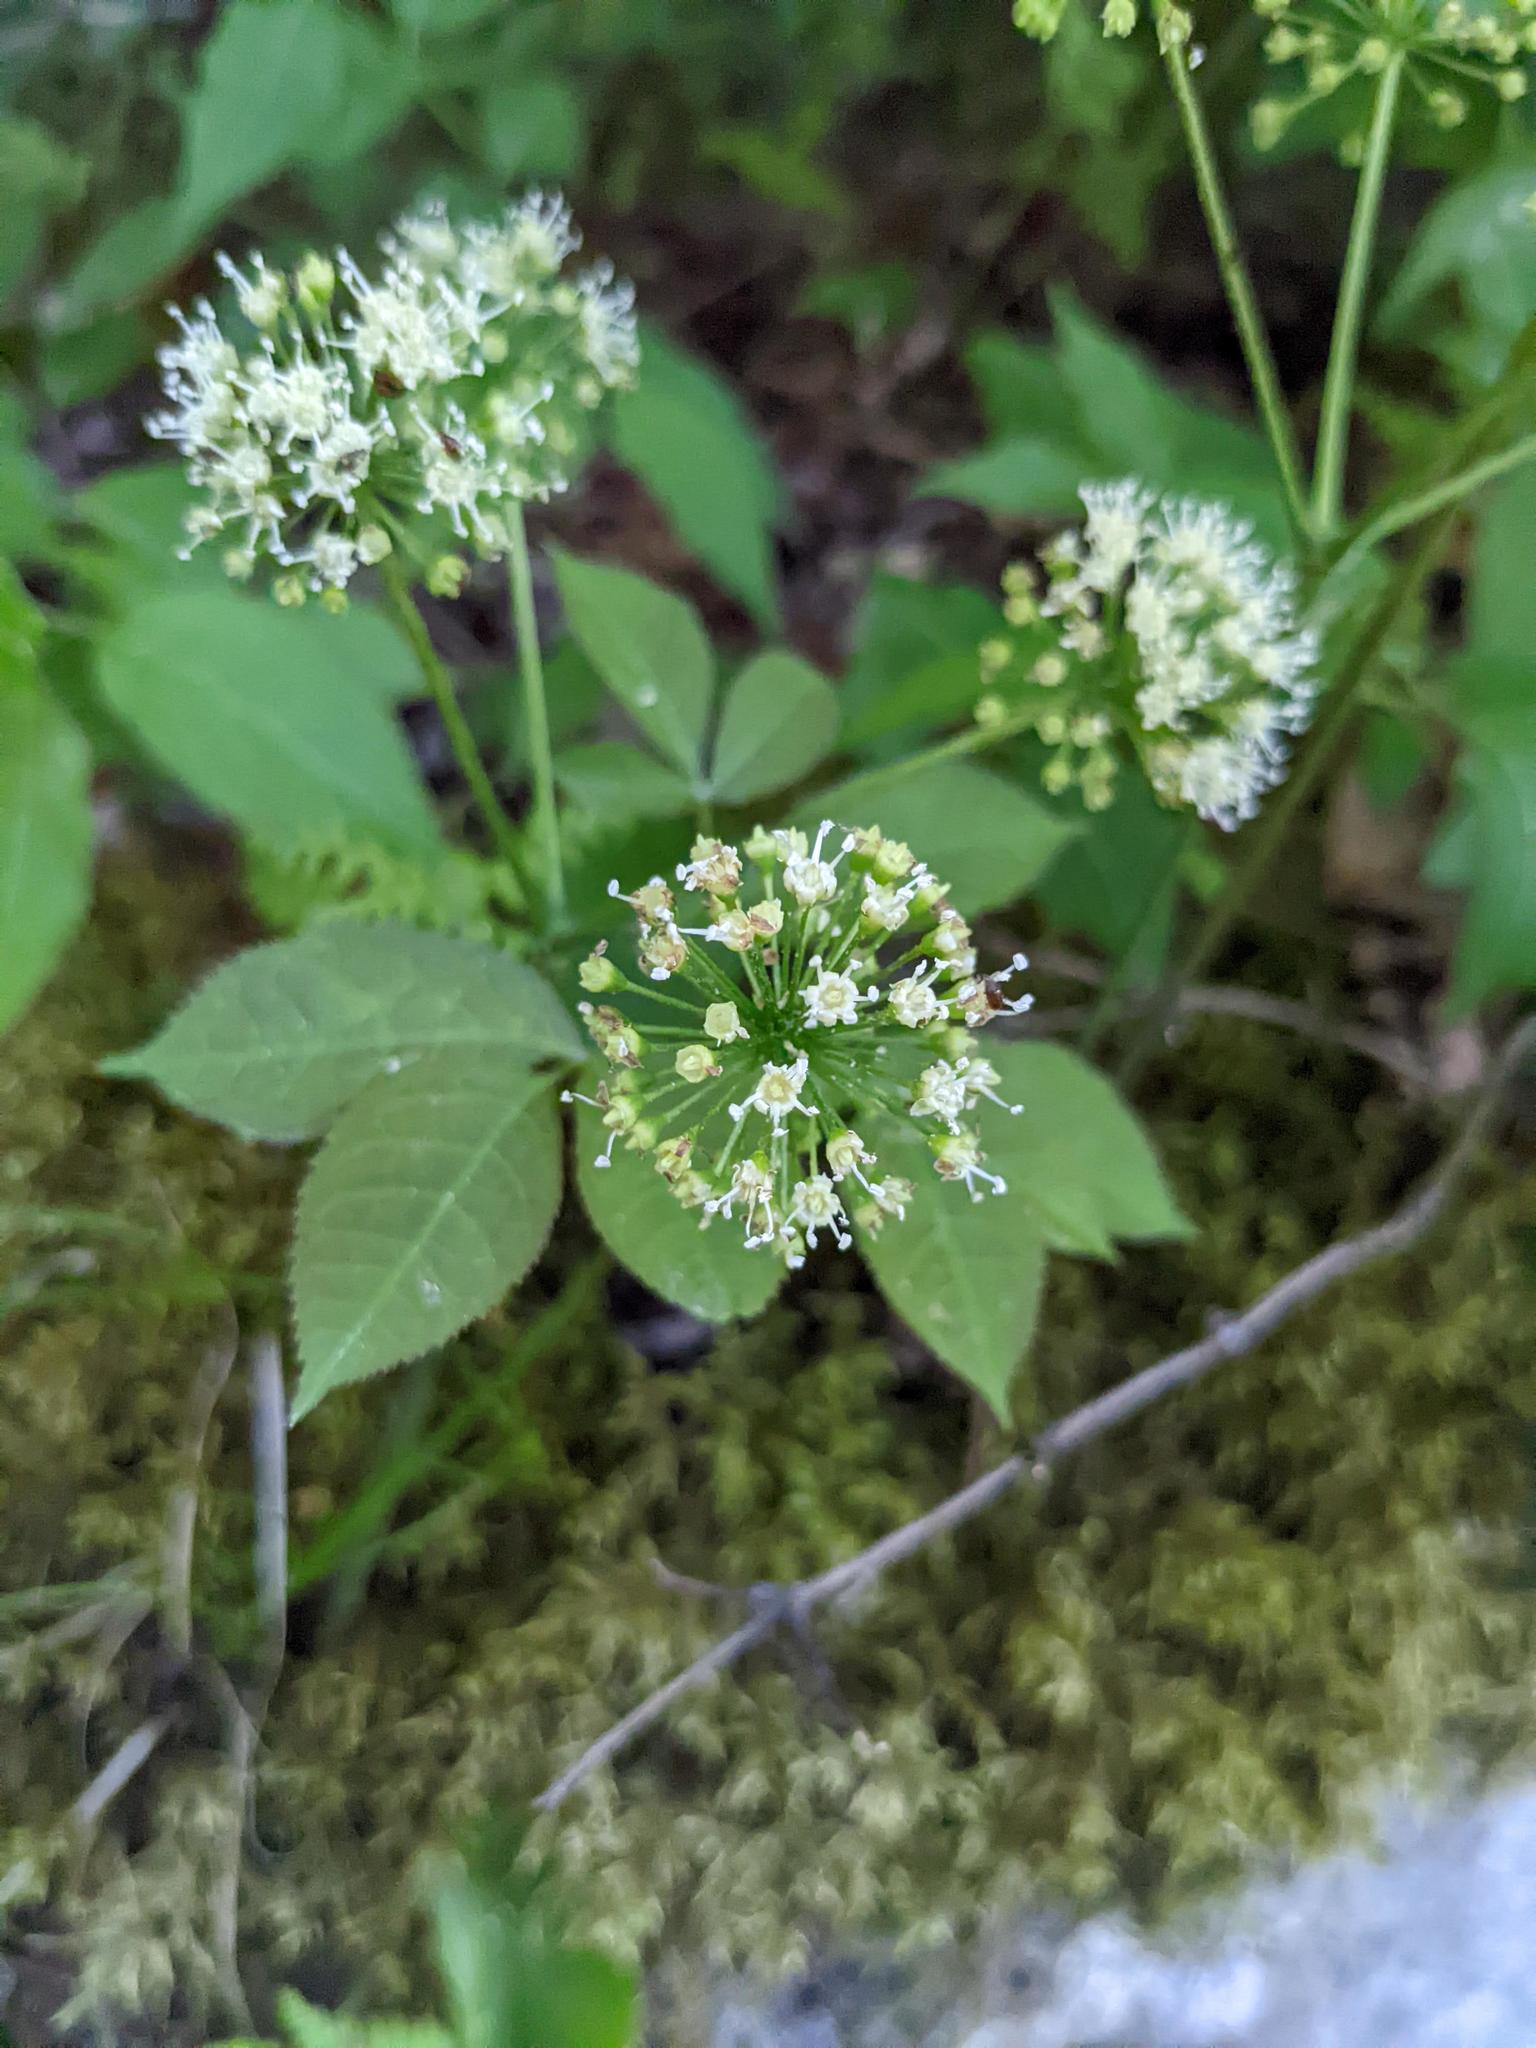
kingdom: Plantae
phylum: Tracheophyta
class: Magnoliopsida
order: Apiales
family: Araliaceae
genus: Aralia
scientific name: Aralia nudicaulis
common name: Wild sarsaparilla
